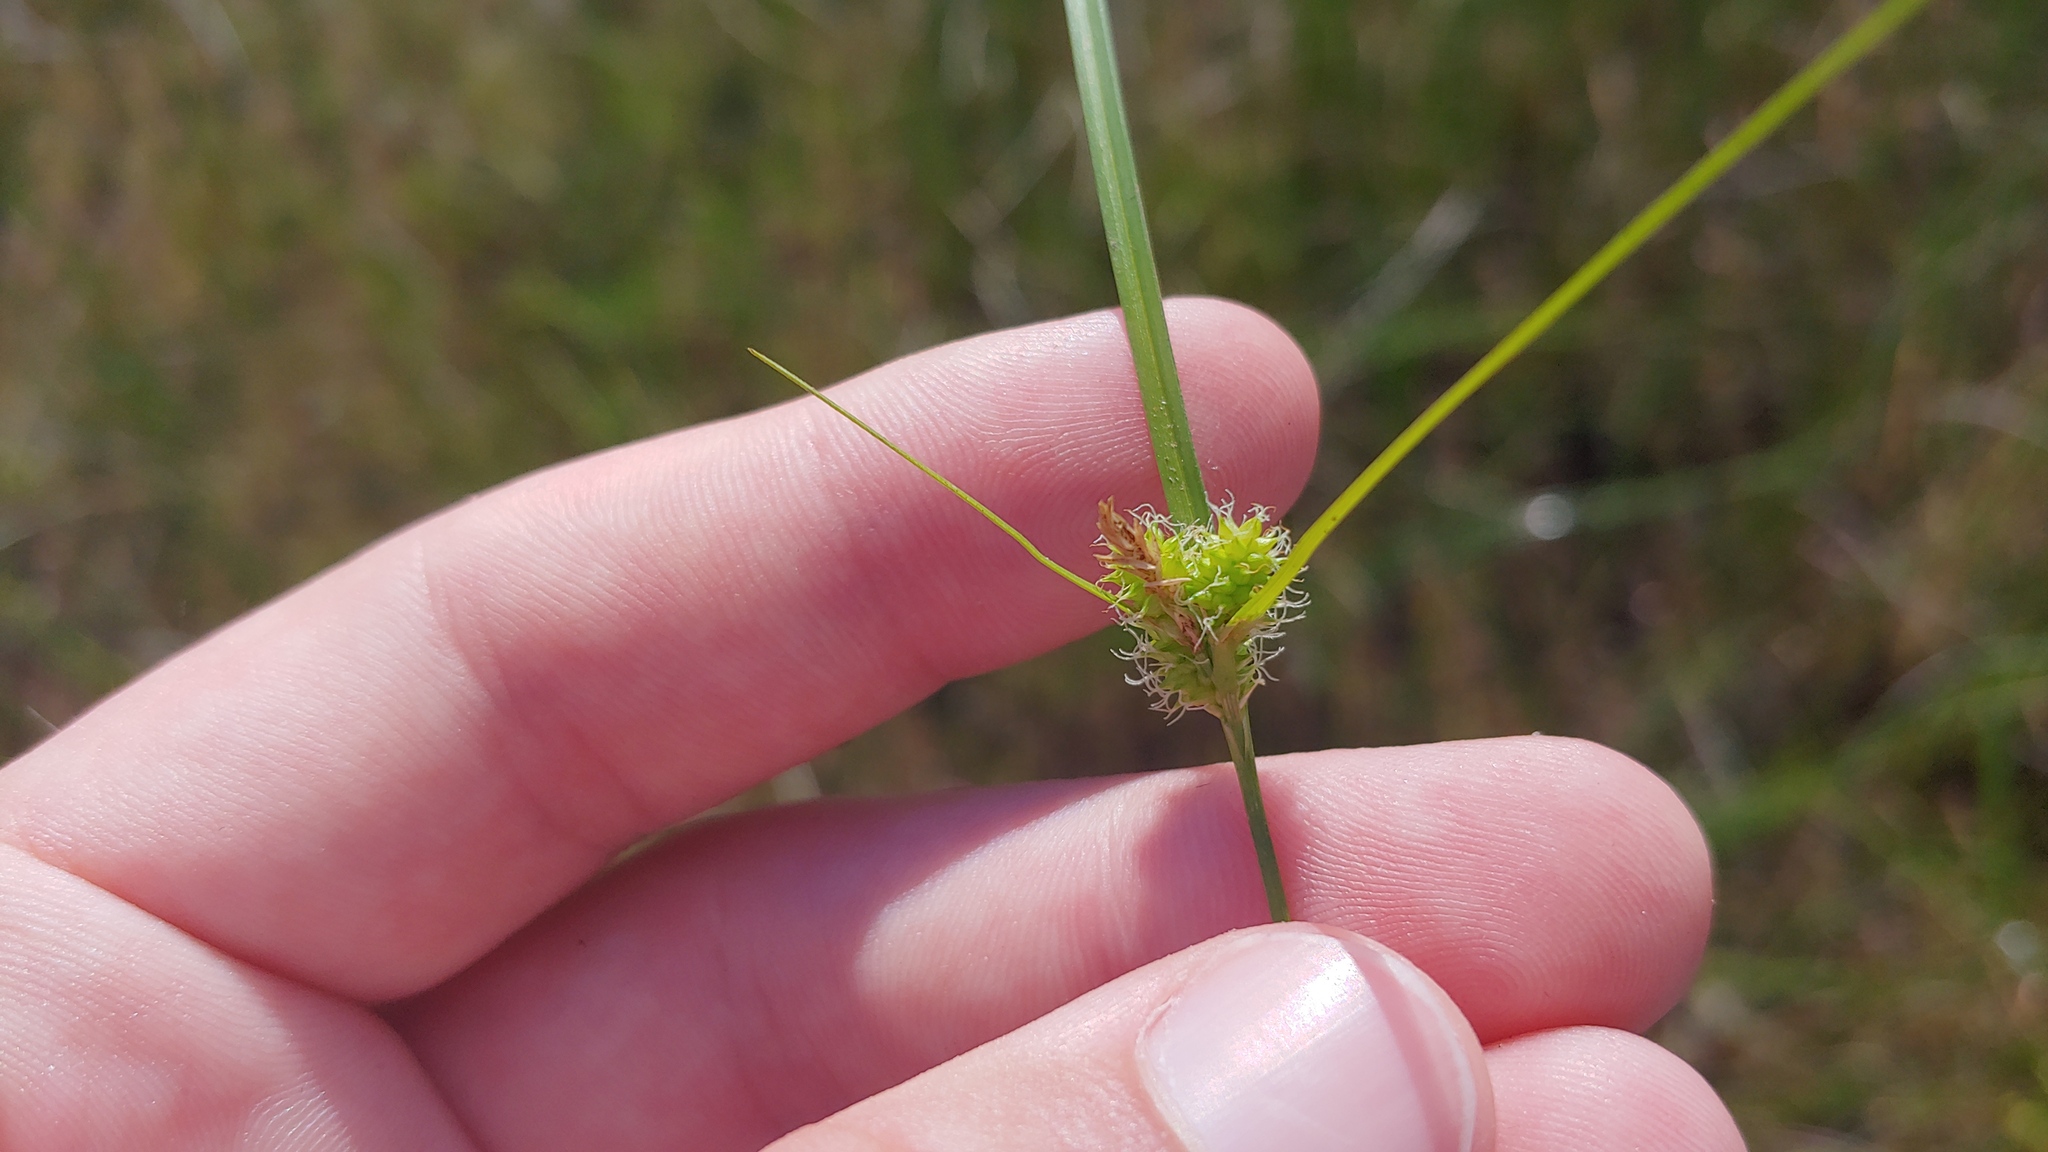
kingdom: Plantae
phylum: Tracheophyta
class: Liliopsida
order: Poales
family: Cyperaceae
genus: Carex
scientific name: Carex
